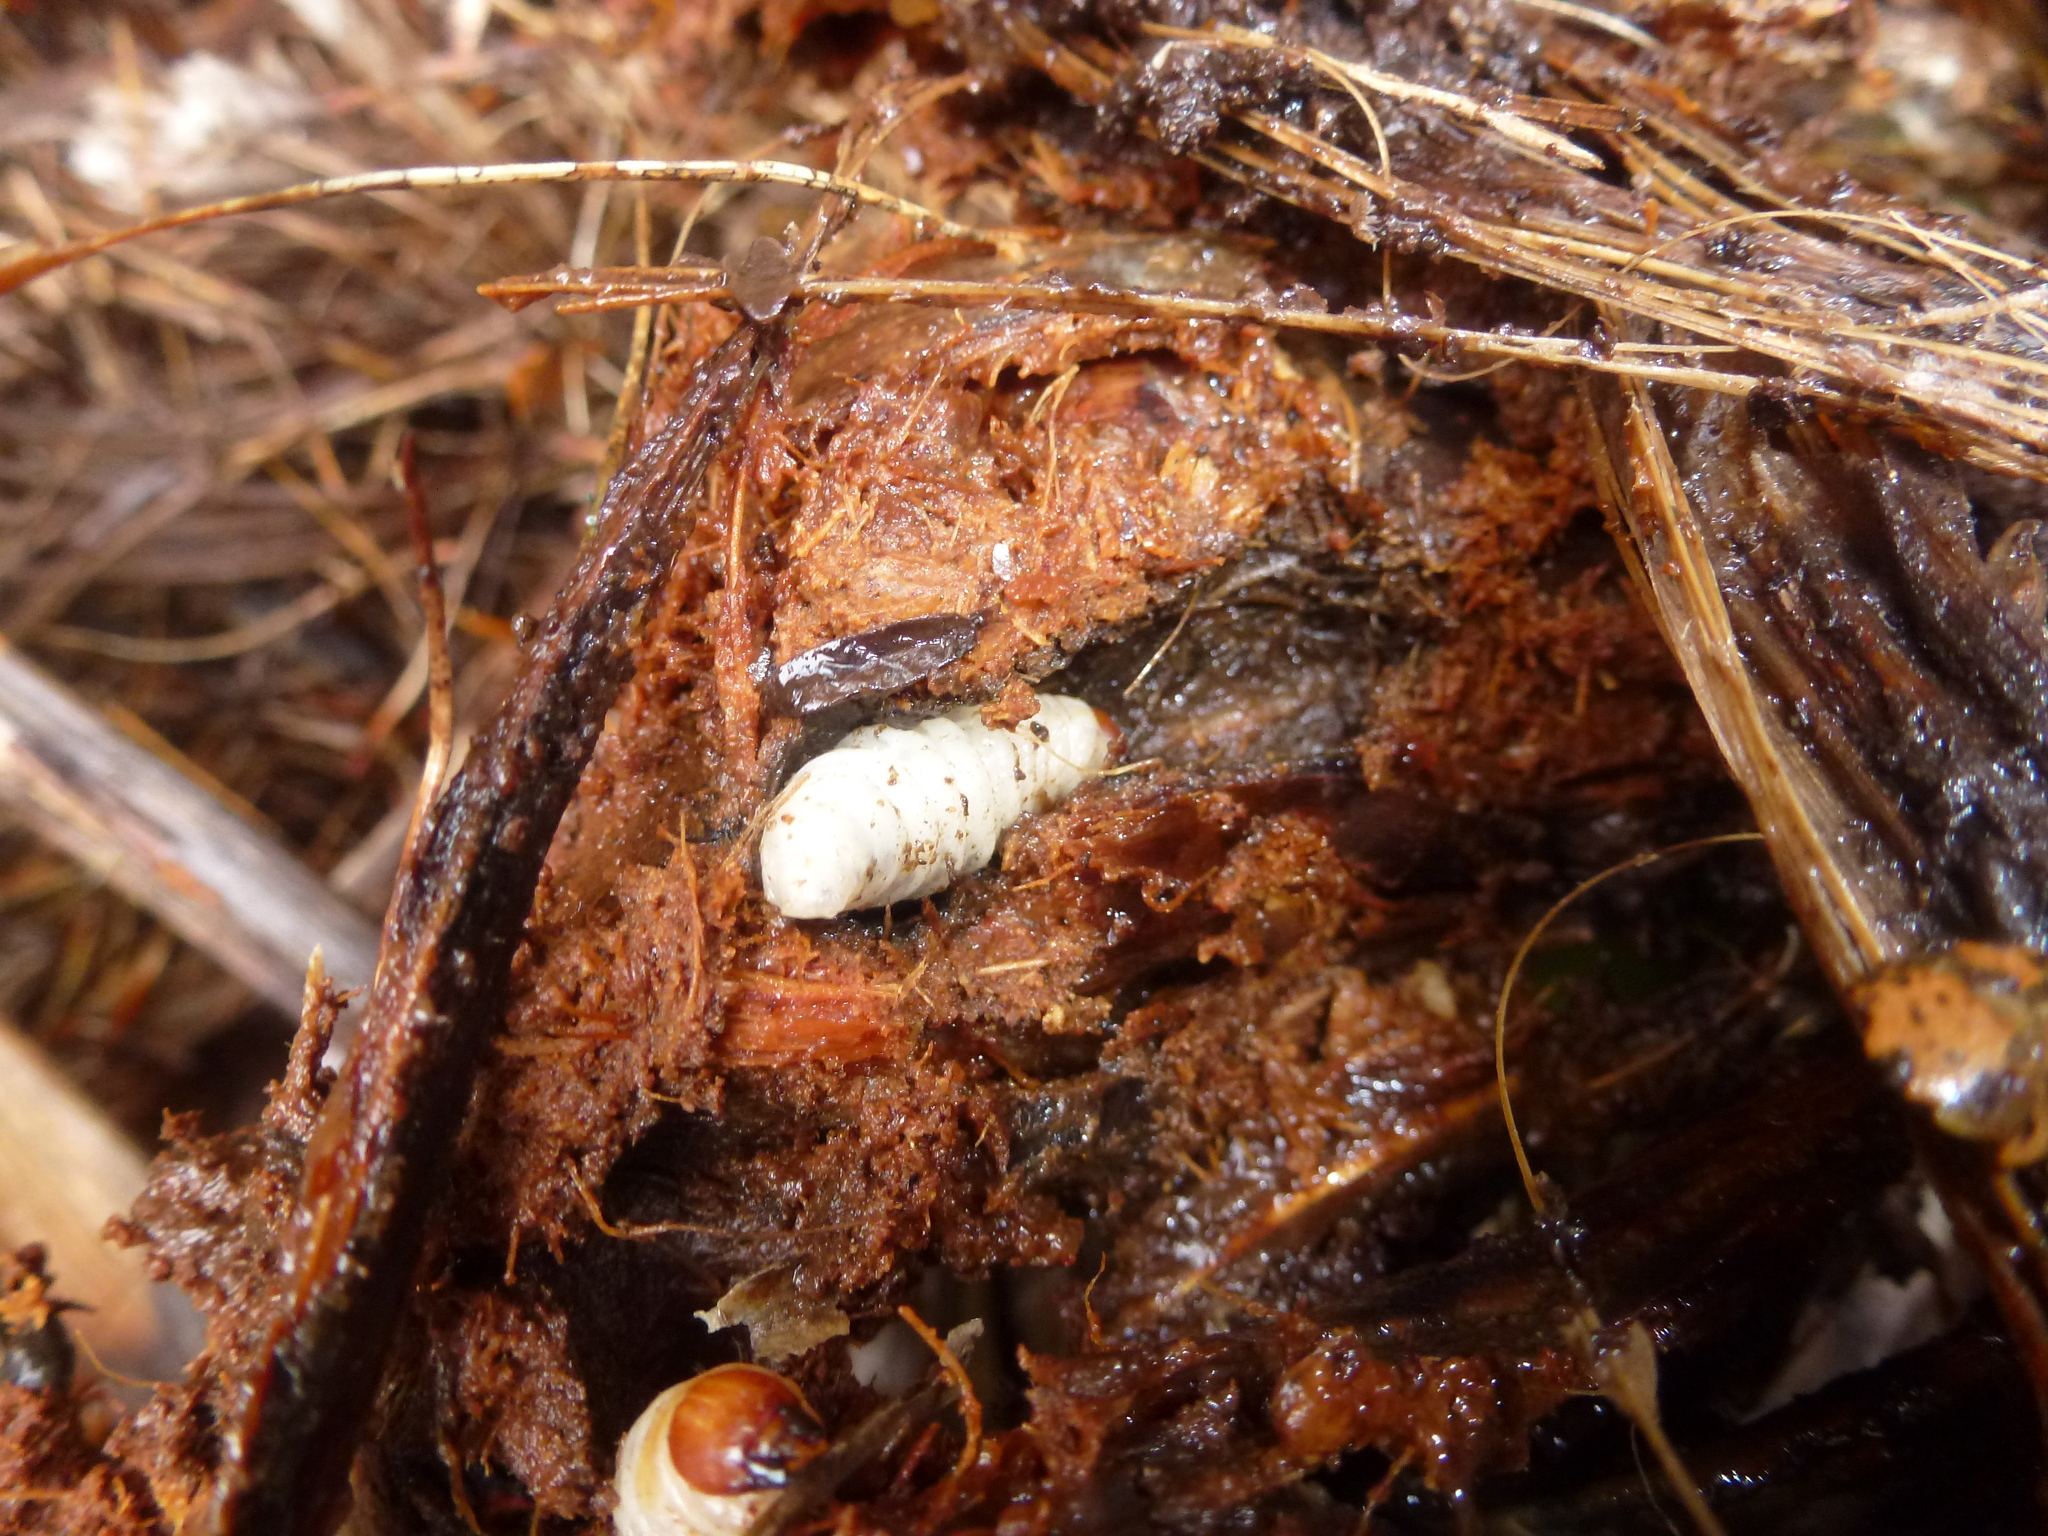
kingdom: Animalia
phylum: Arthropoda
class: Insecta
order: Coleoptera
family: Curculionidae
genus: Anagotus
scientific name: Anagotus fairburni
